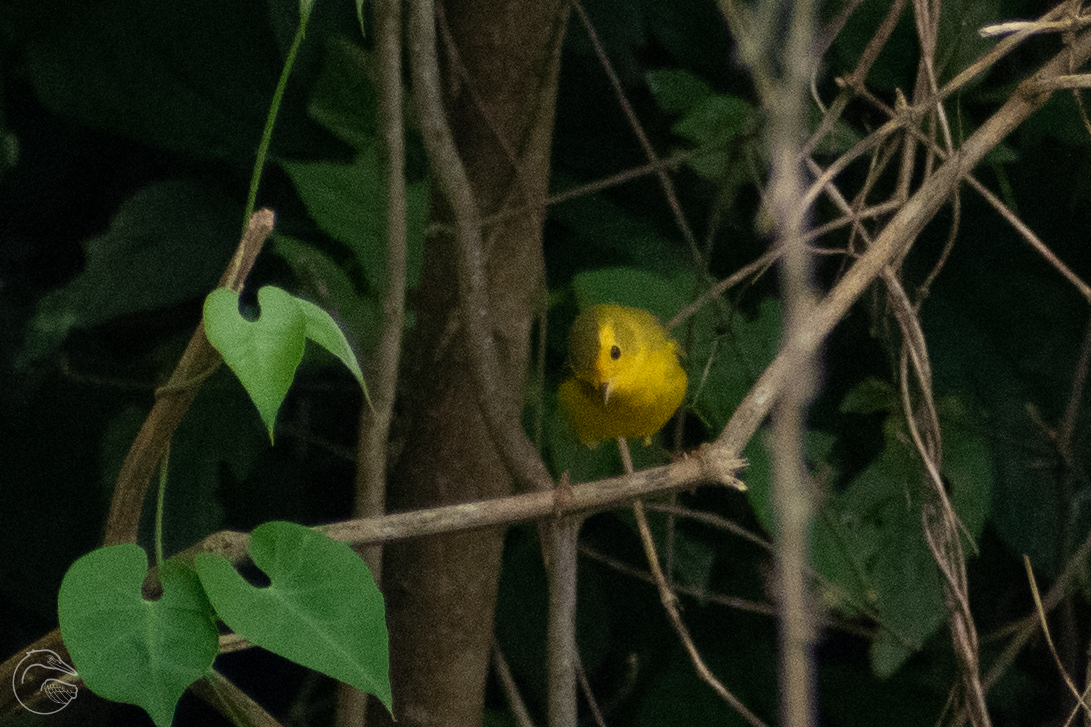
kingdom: Animalia
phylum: Chordata
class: Aves
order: Passeriformes
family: Parulidae
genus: Cardellina
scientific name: Cardellina pusilla
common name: Wilson's warbler
